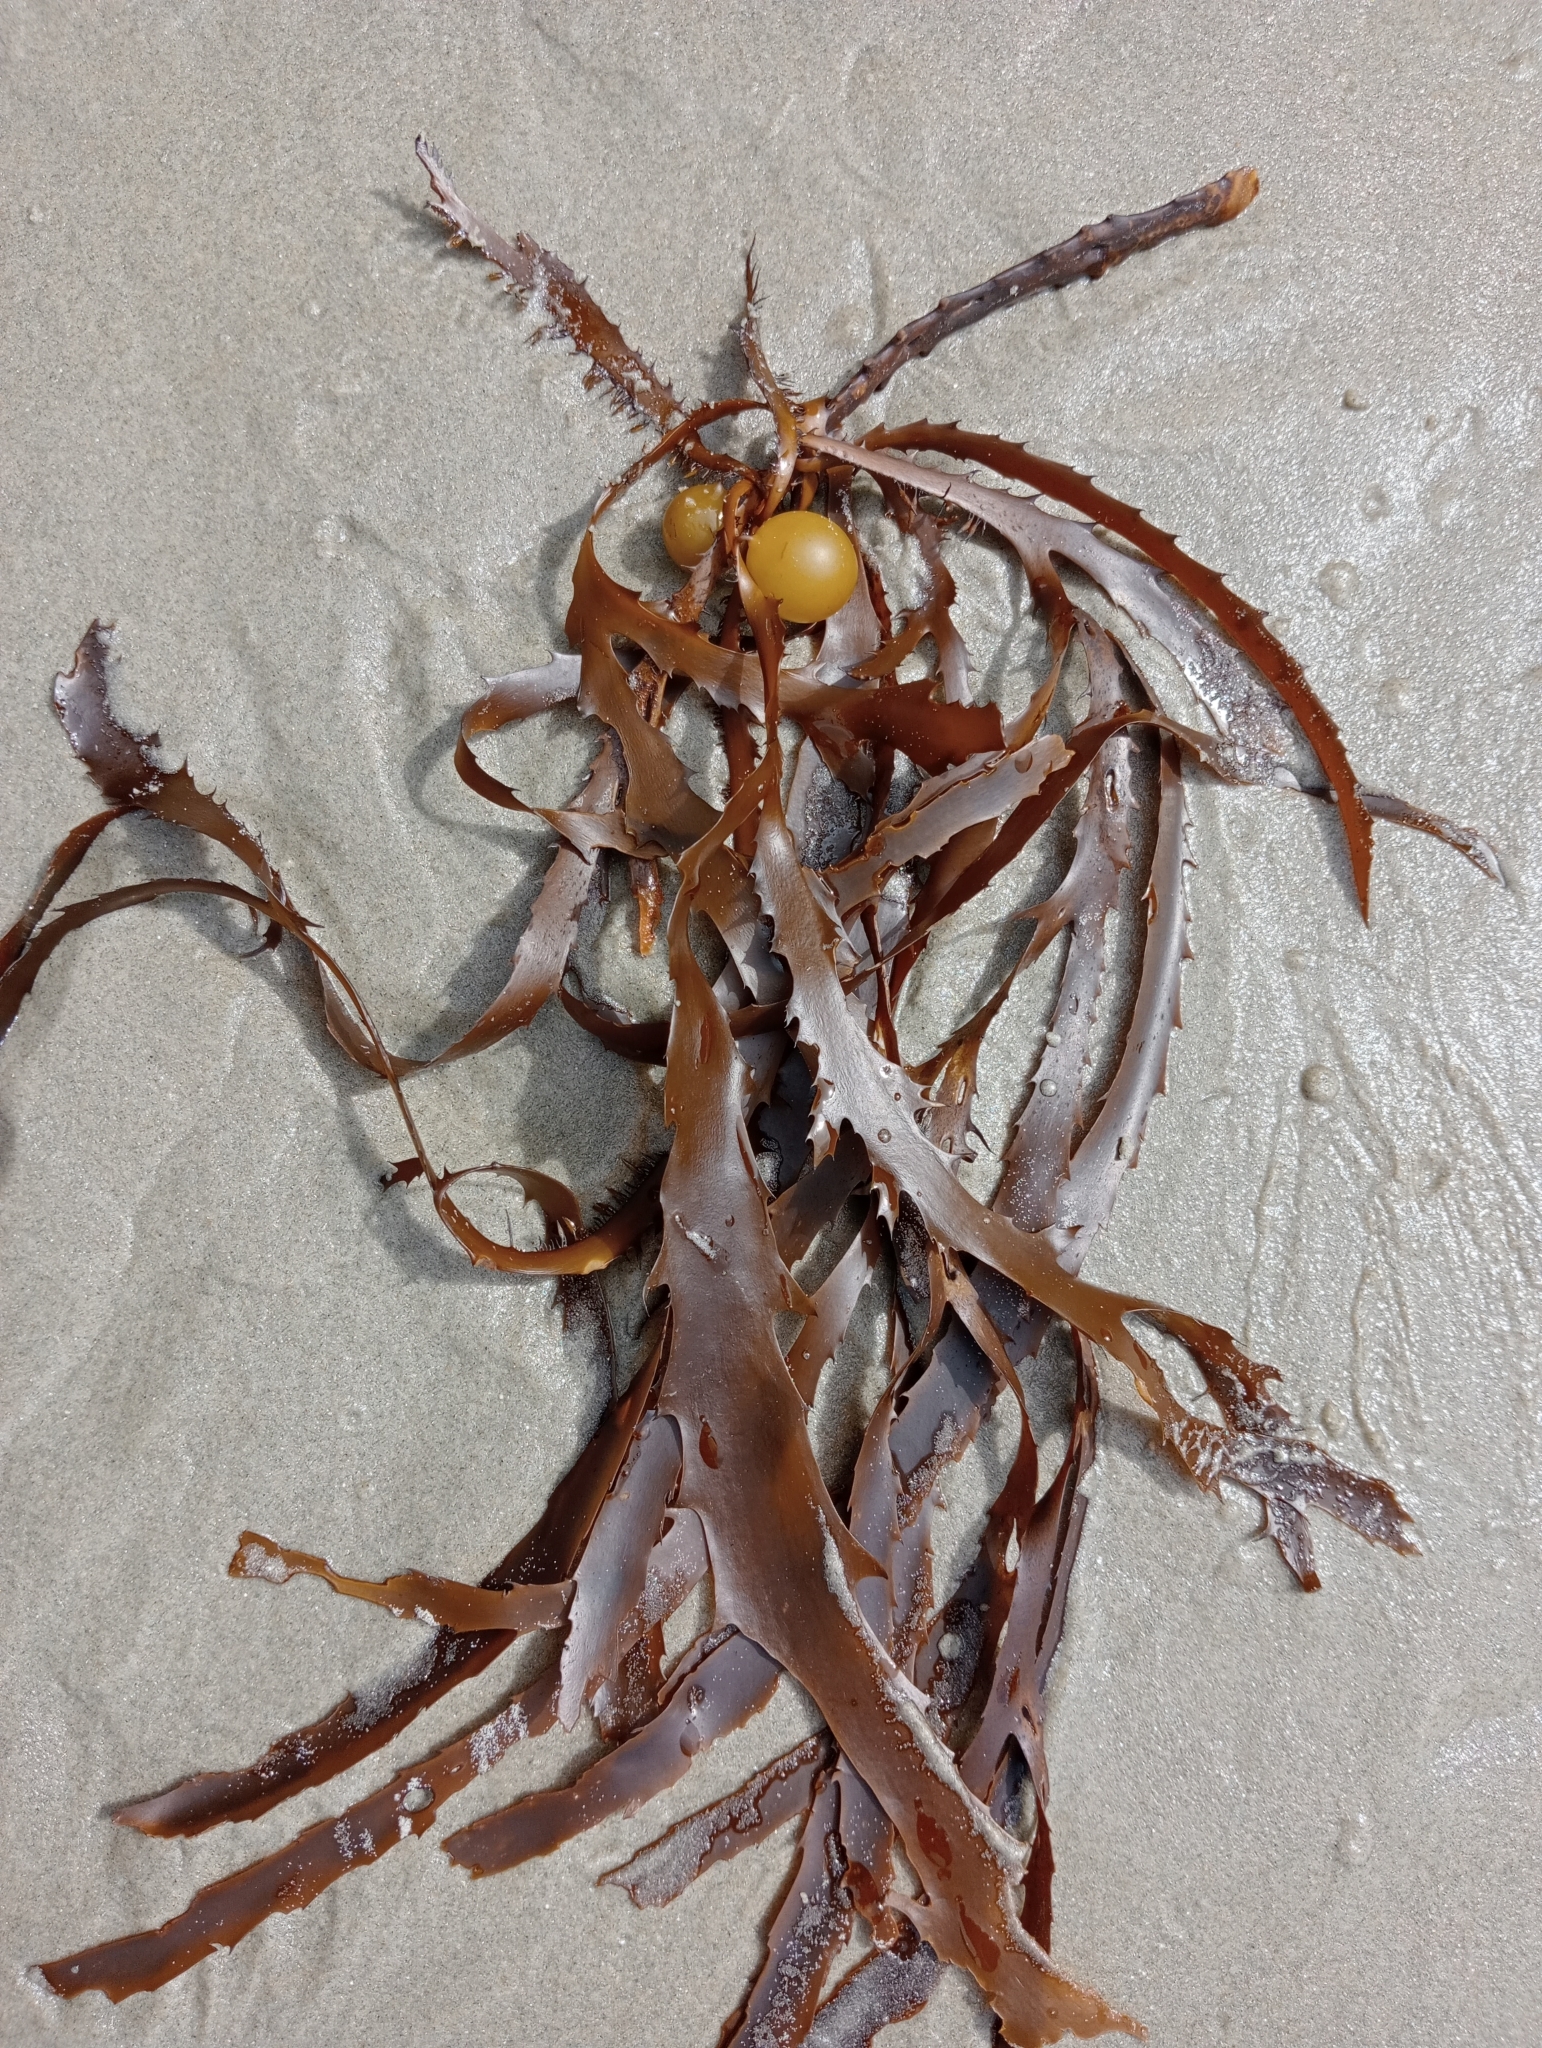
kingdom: Chromista
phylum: Ochrophyta
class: Phaeophyceae
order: Fucales
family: Seirococcaceae
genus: Marginariella
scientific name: Marginariella urvilliana
